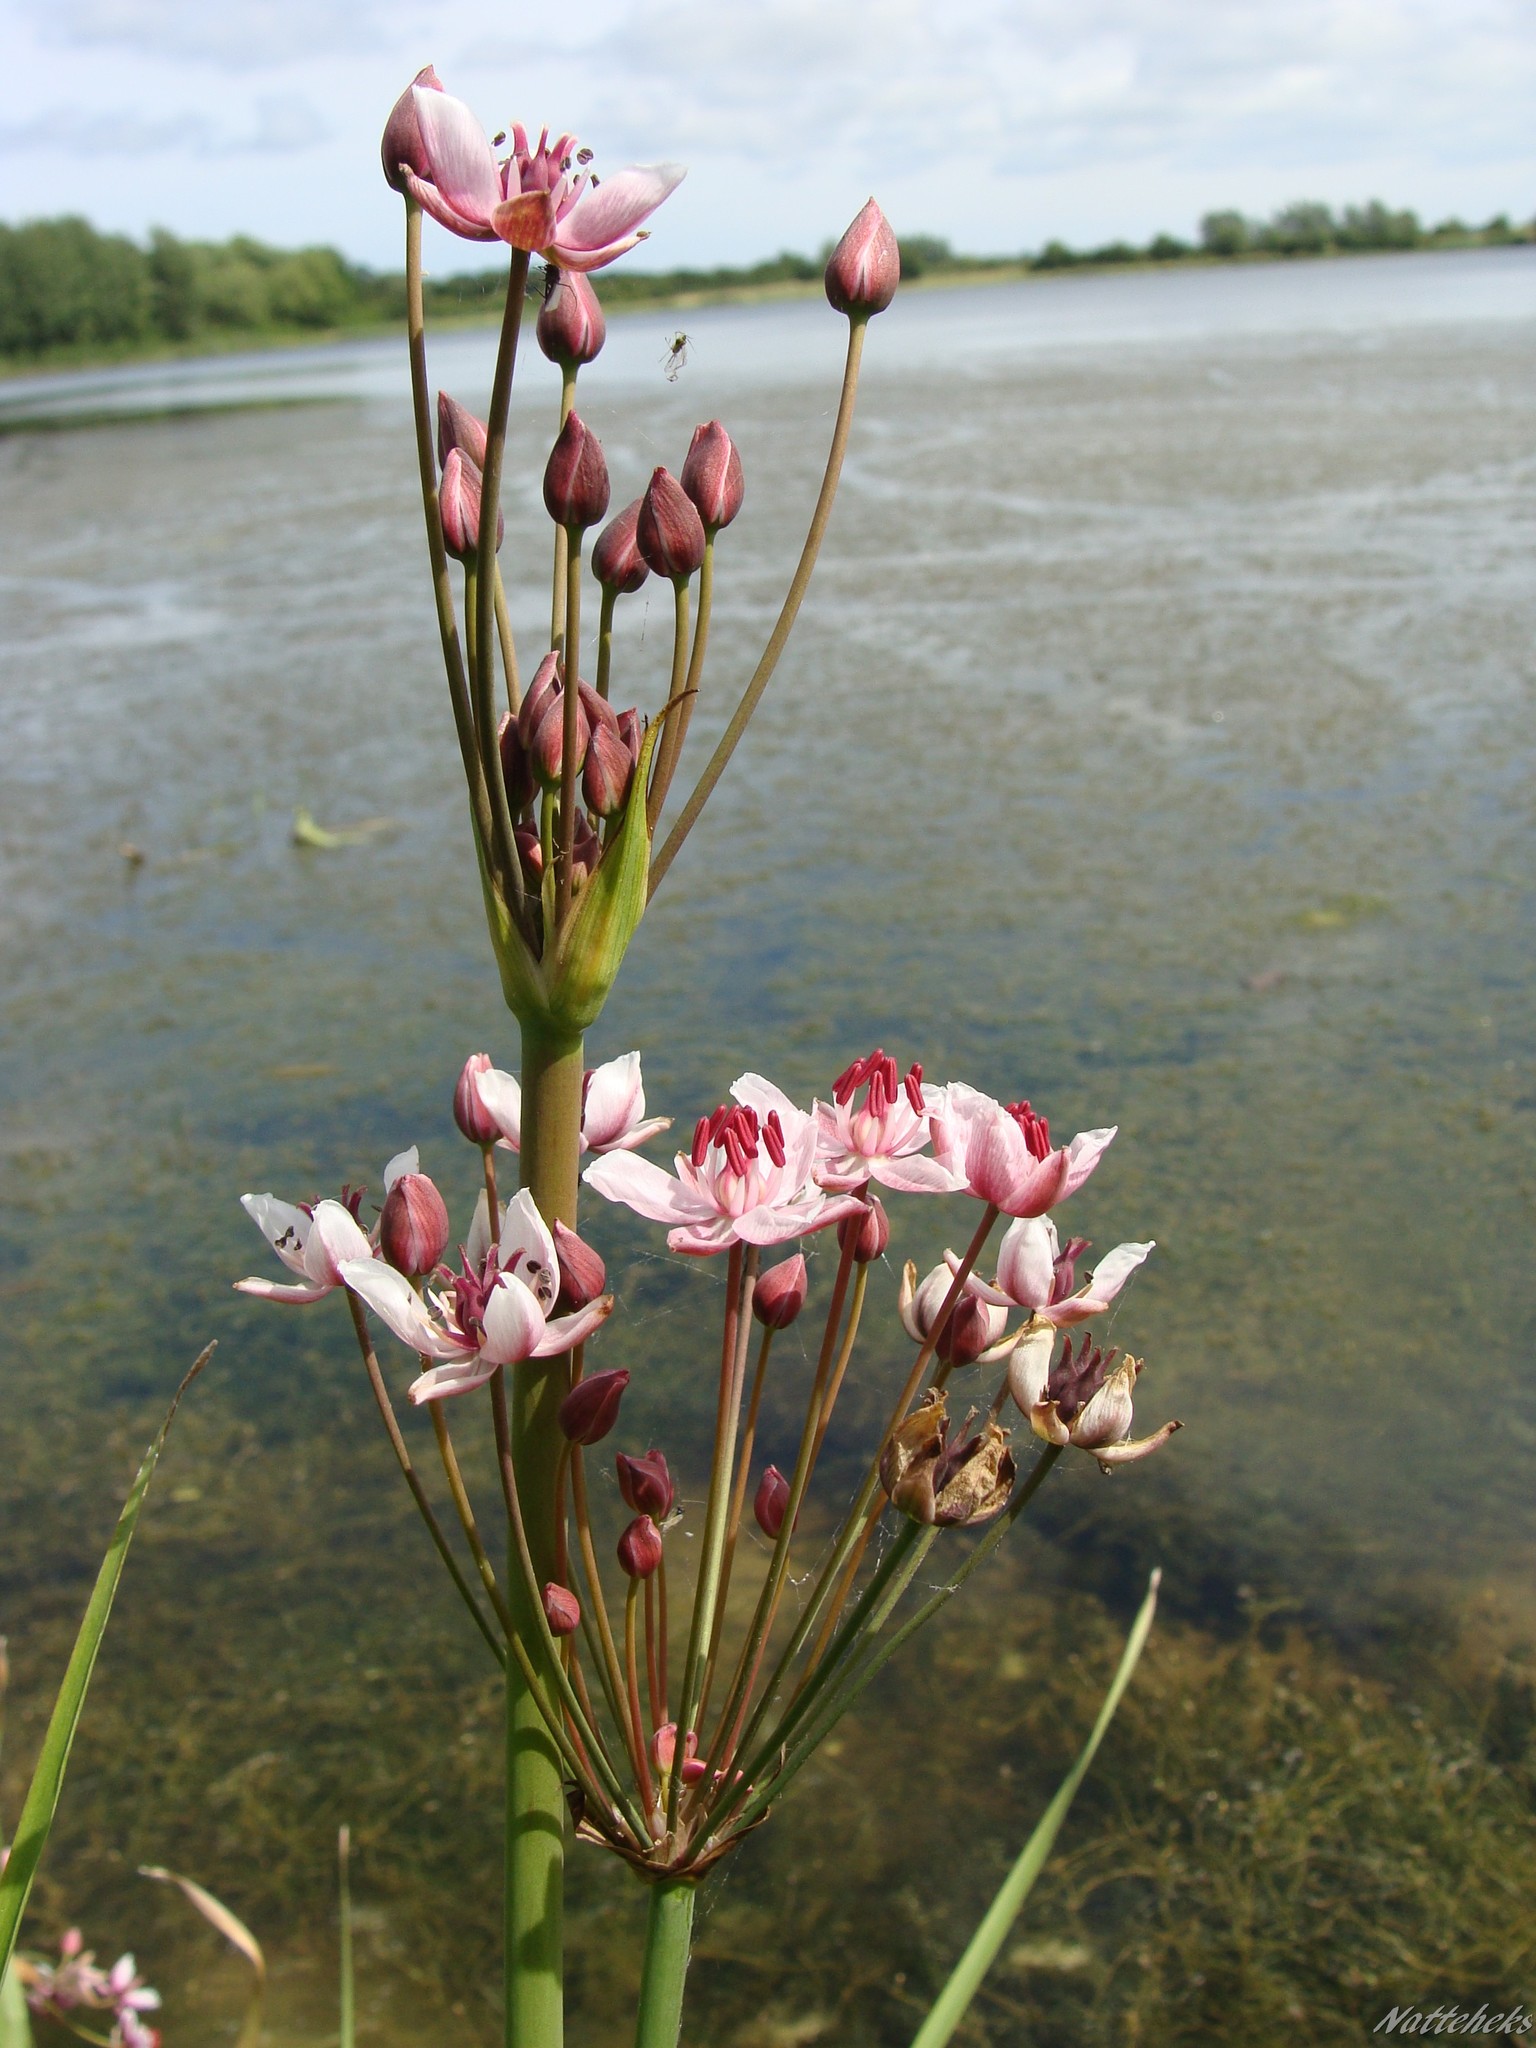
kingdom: Plantae
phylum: Tracheophyta
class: Liliopsida
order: Alismatales
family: Butomaceae
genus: Butomus
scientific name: Butomus umbellatus
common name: Flowering-rush
